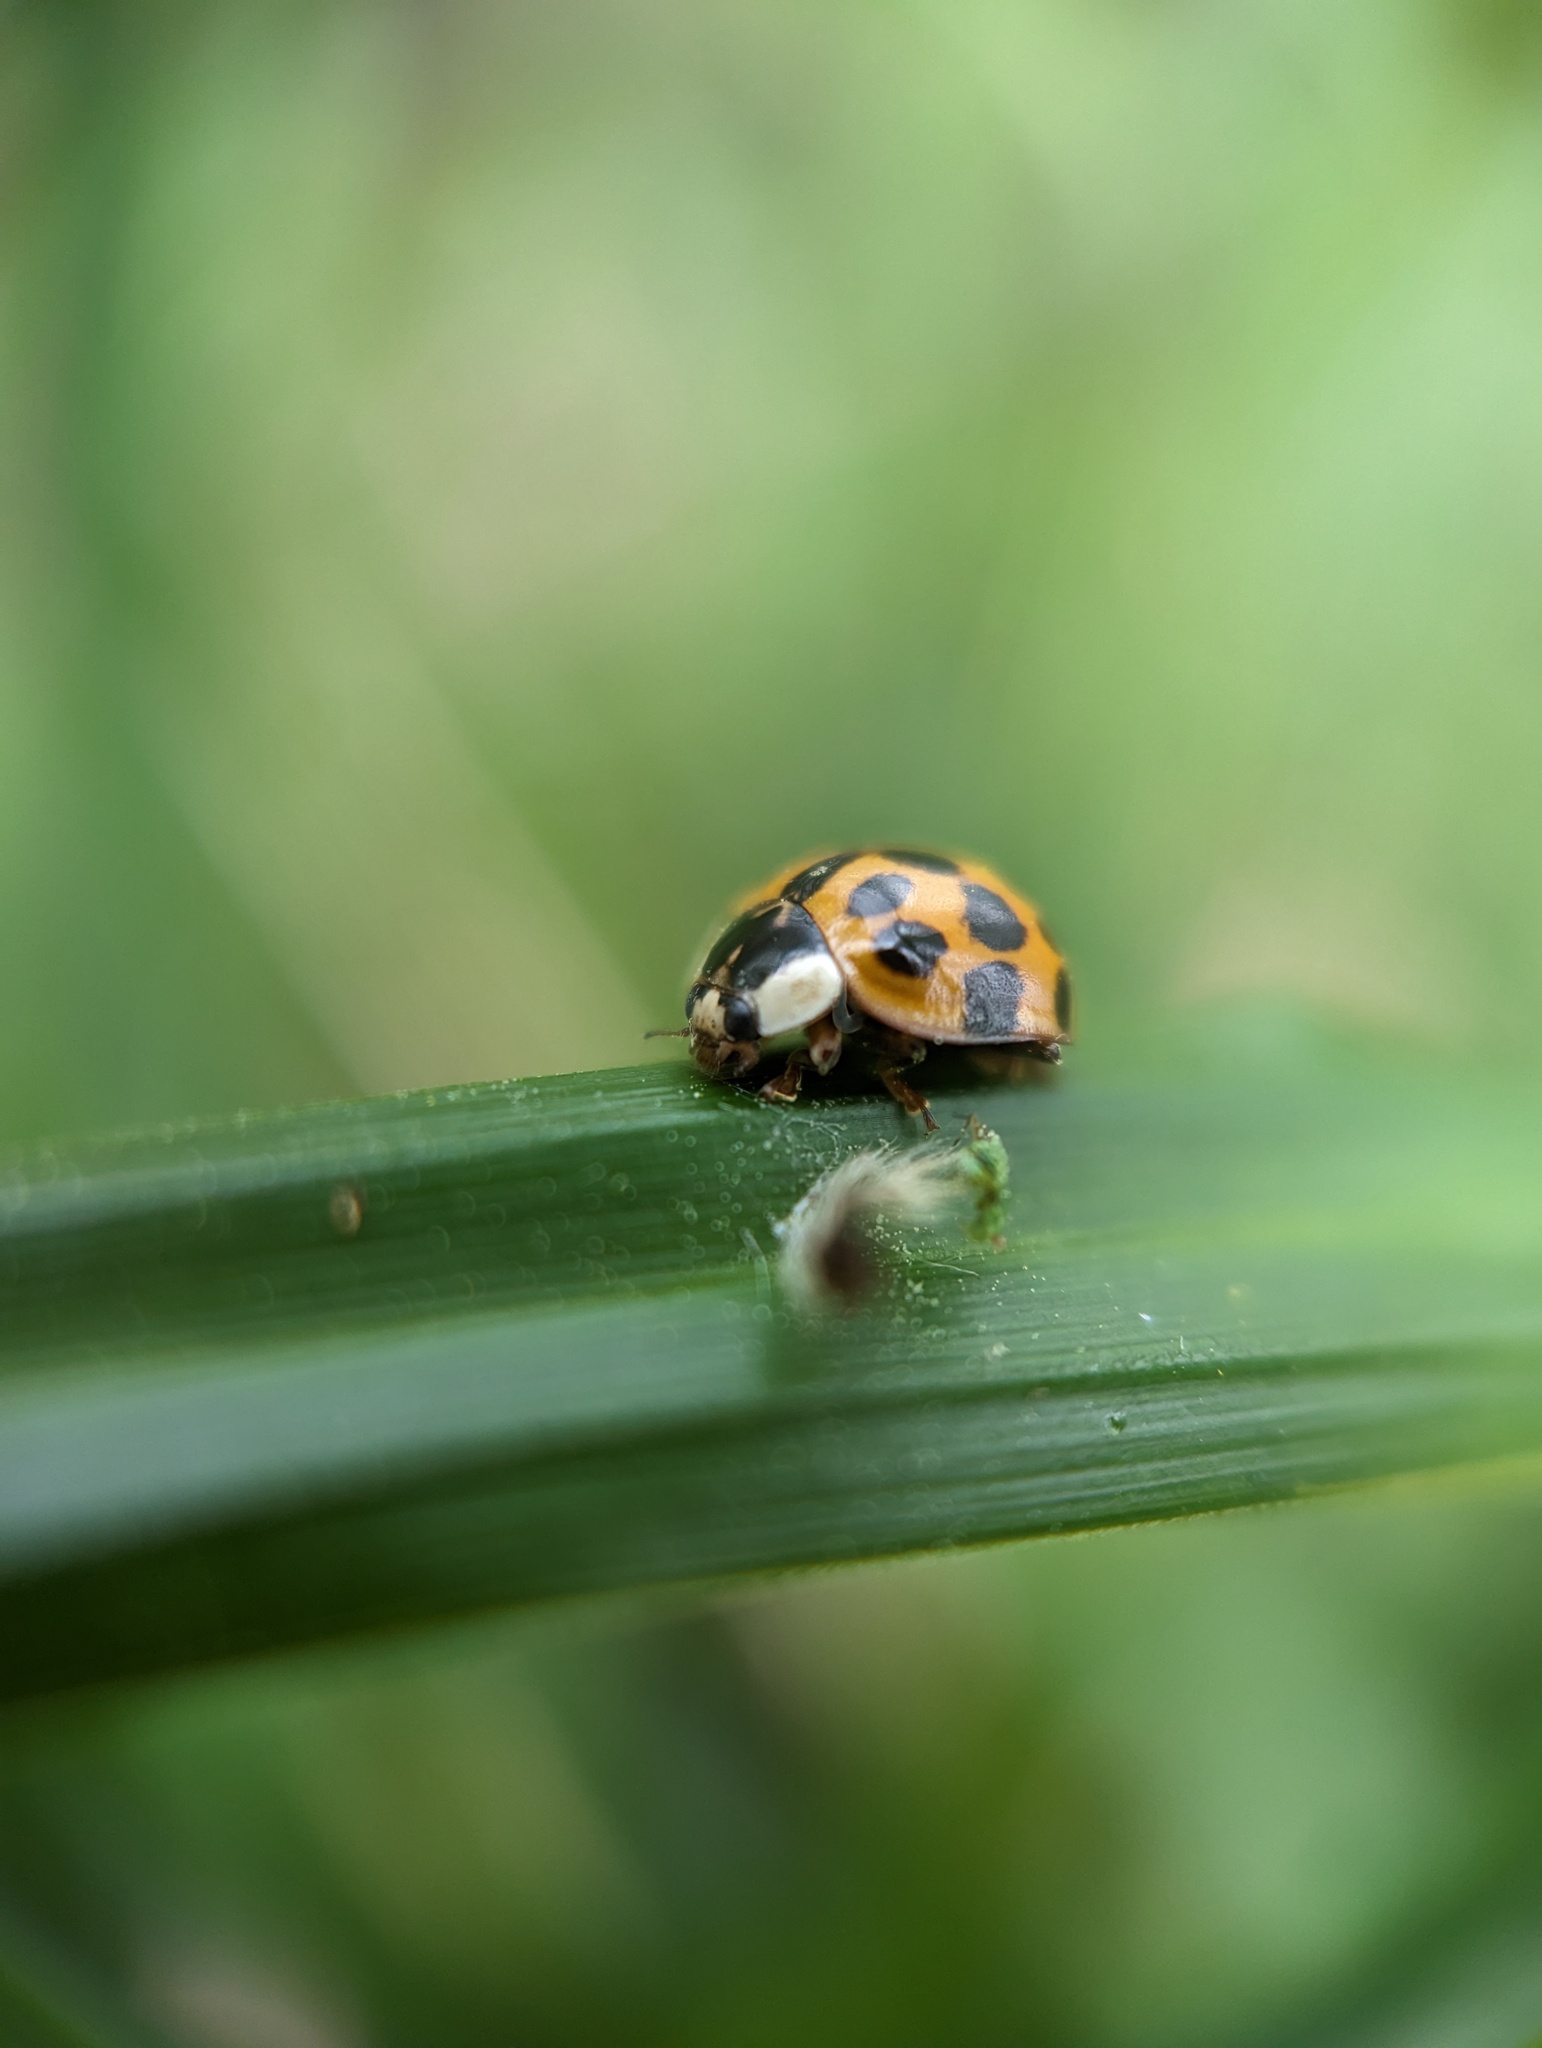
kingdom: Animalia
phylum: Arthropoda
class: Insecta
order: Coleoptera
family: Coccinellidae
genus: Harmonia
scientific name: Harmonia axyridis
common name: Harlequin ladybird
